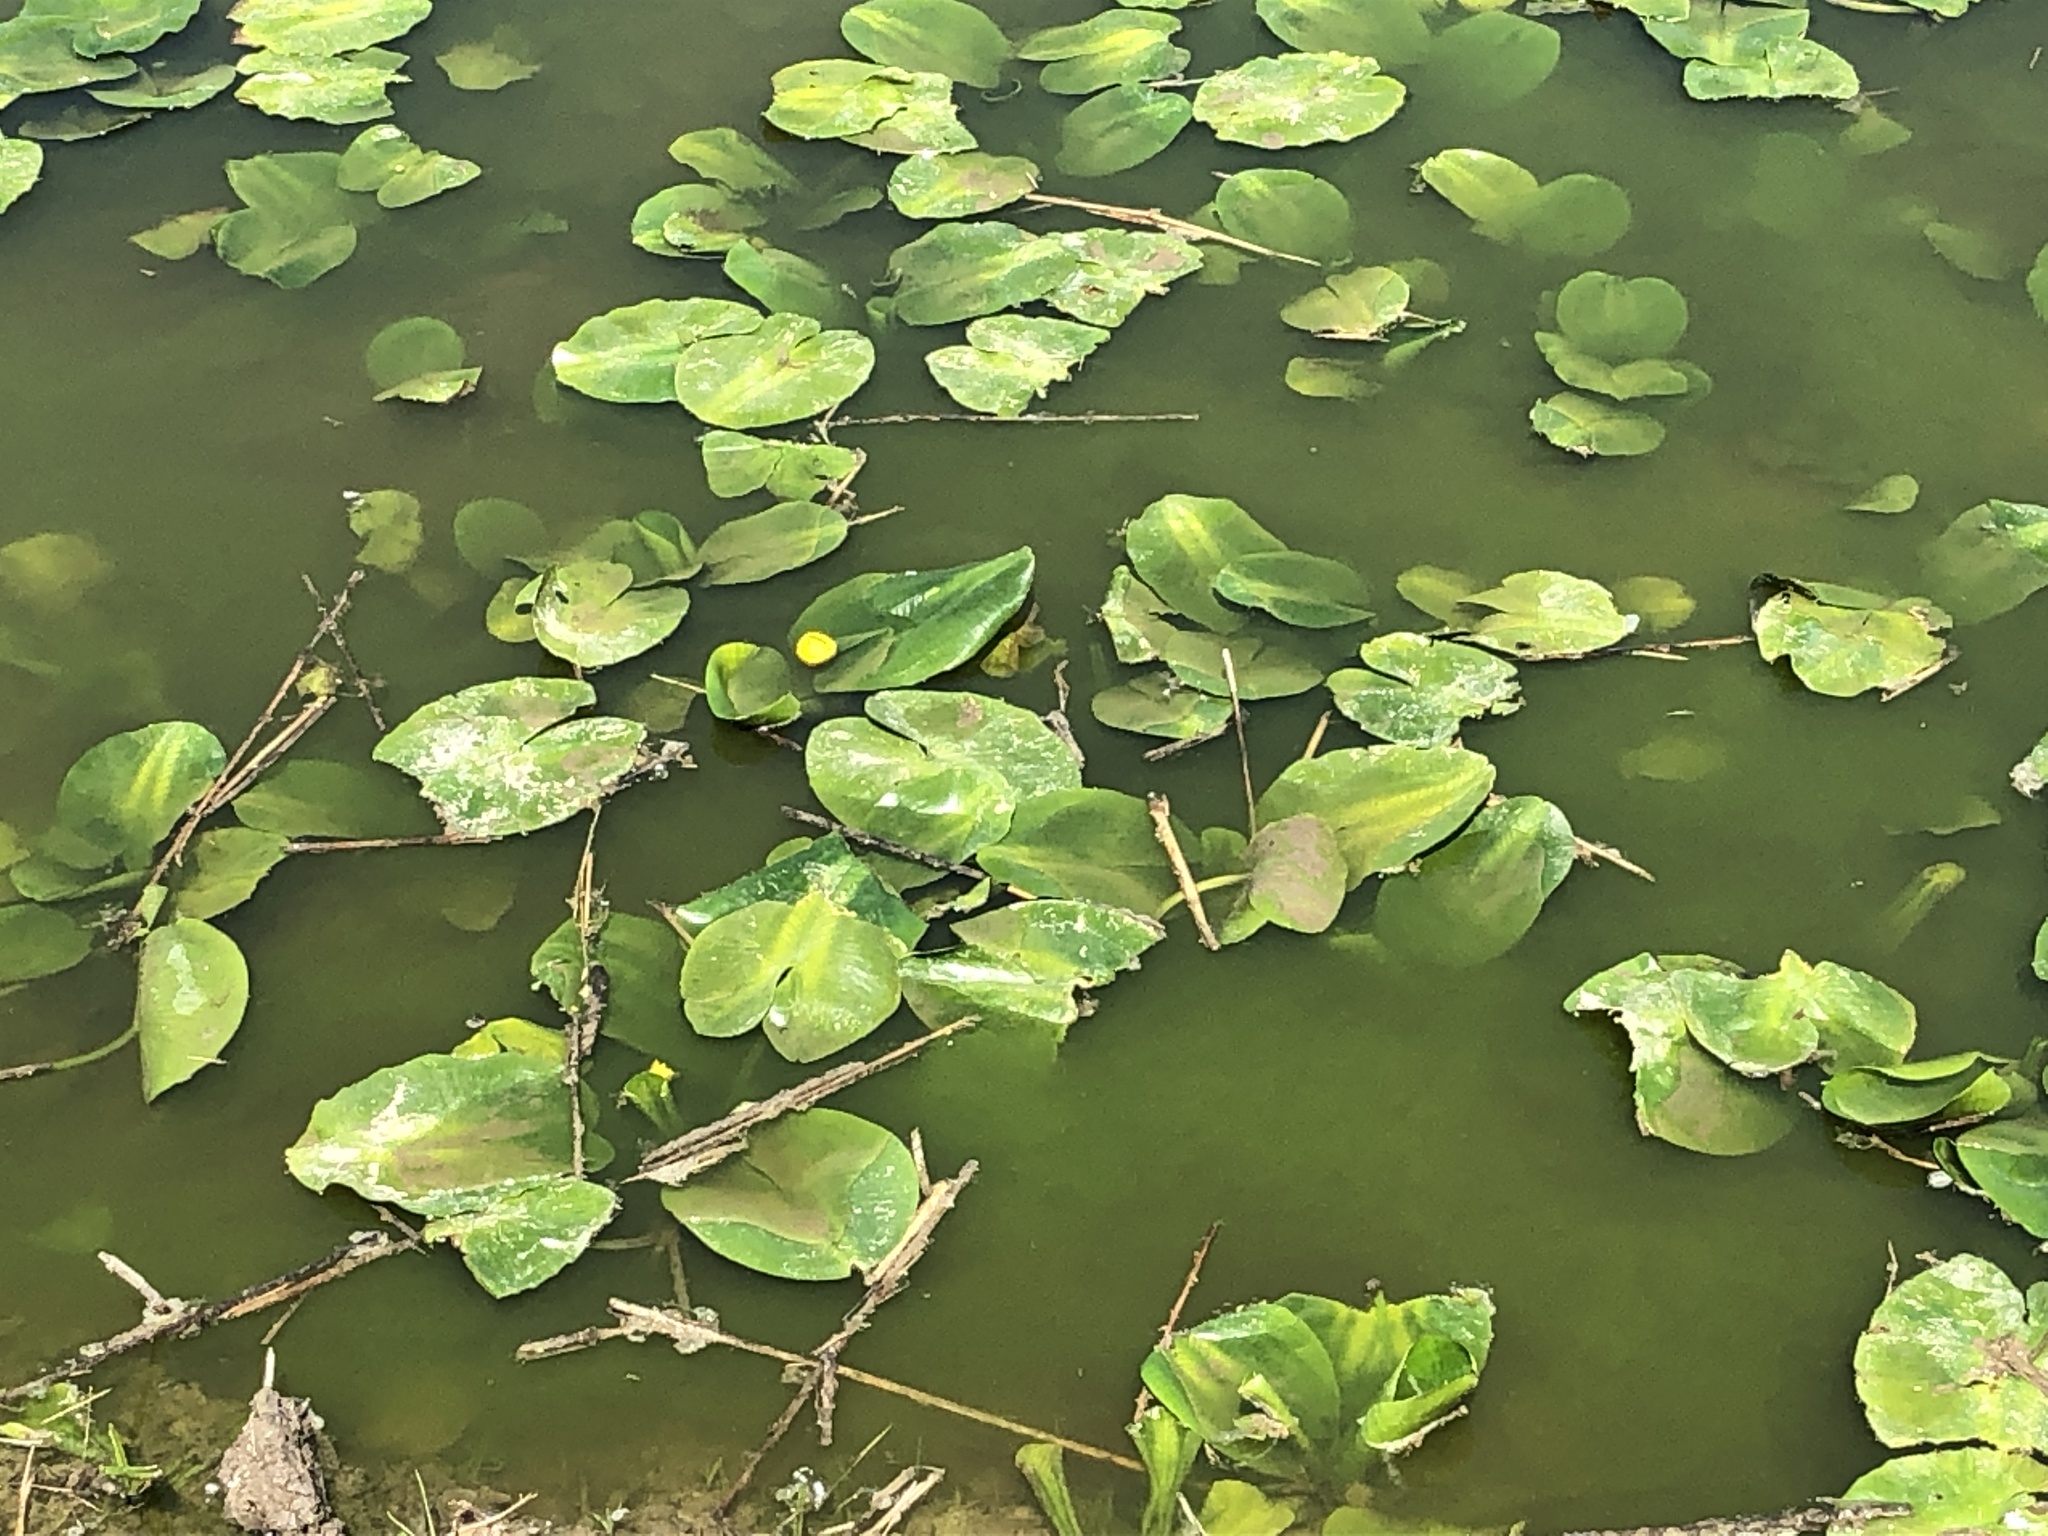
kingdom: Plantae
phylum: Tracheophyta
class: Magnoliopsida
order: Nymphaeales
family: Nymphaeaceae
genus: Nuphar
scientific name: Nuphar lutea
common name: Yellow water-lily
